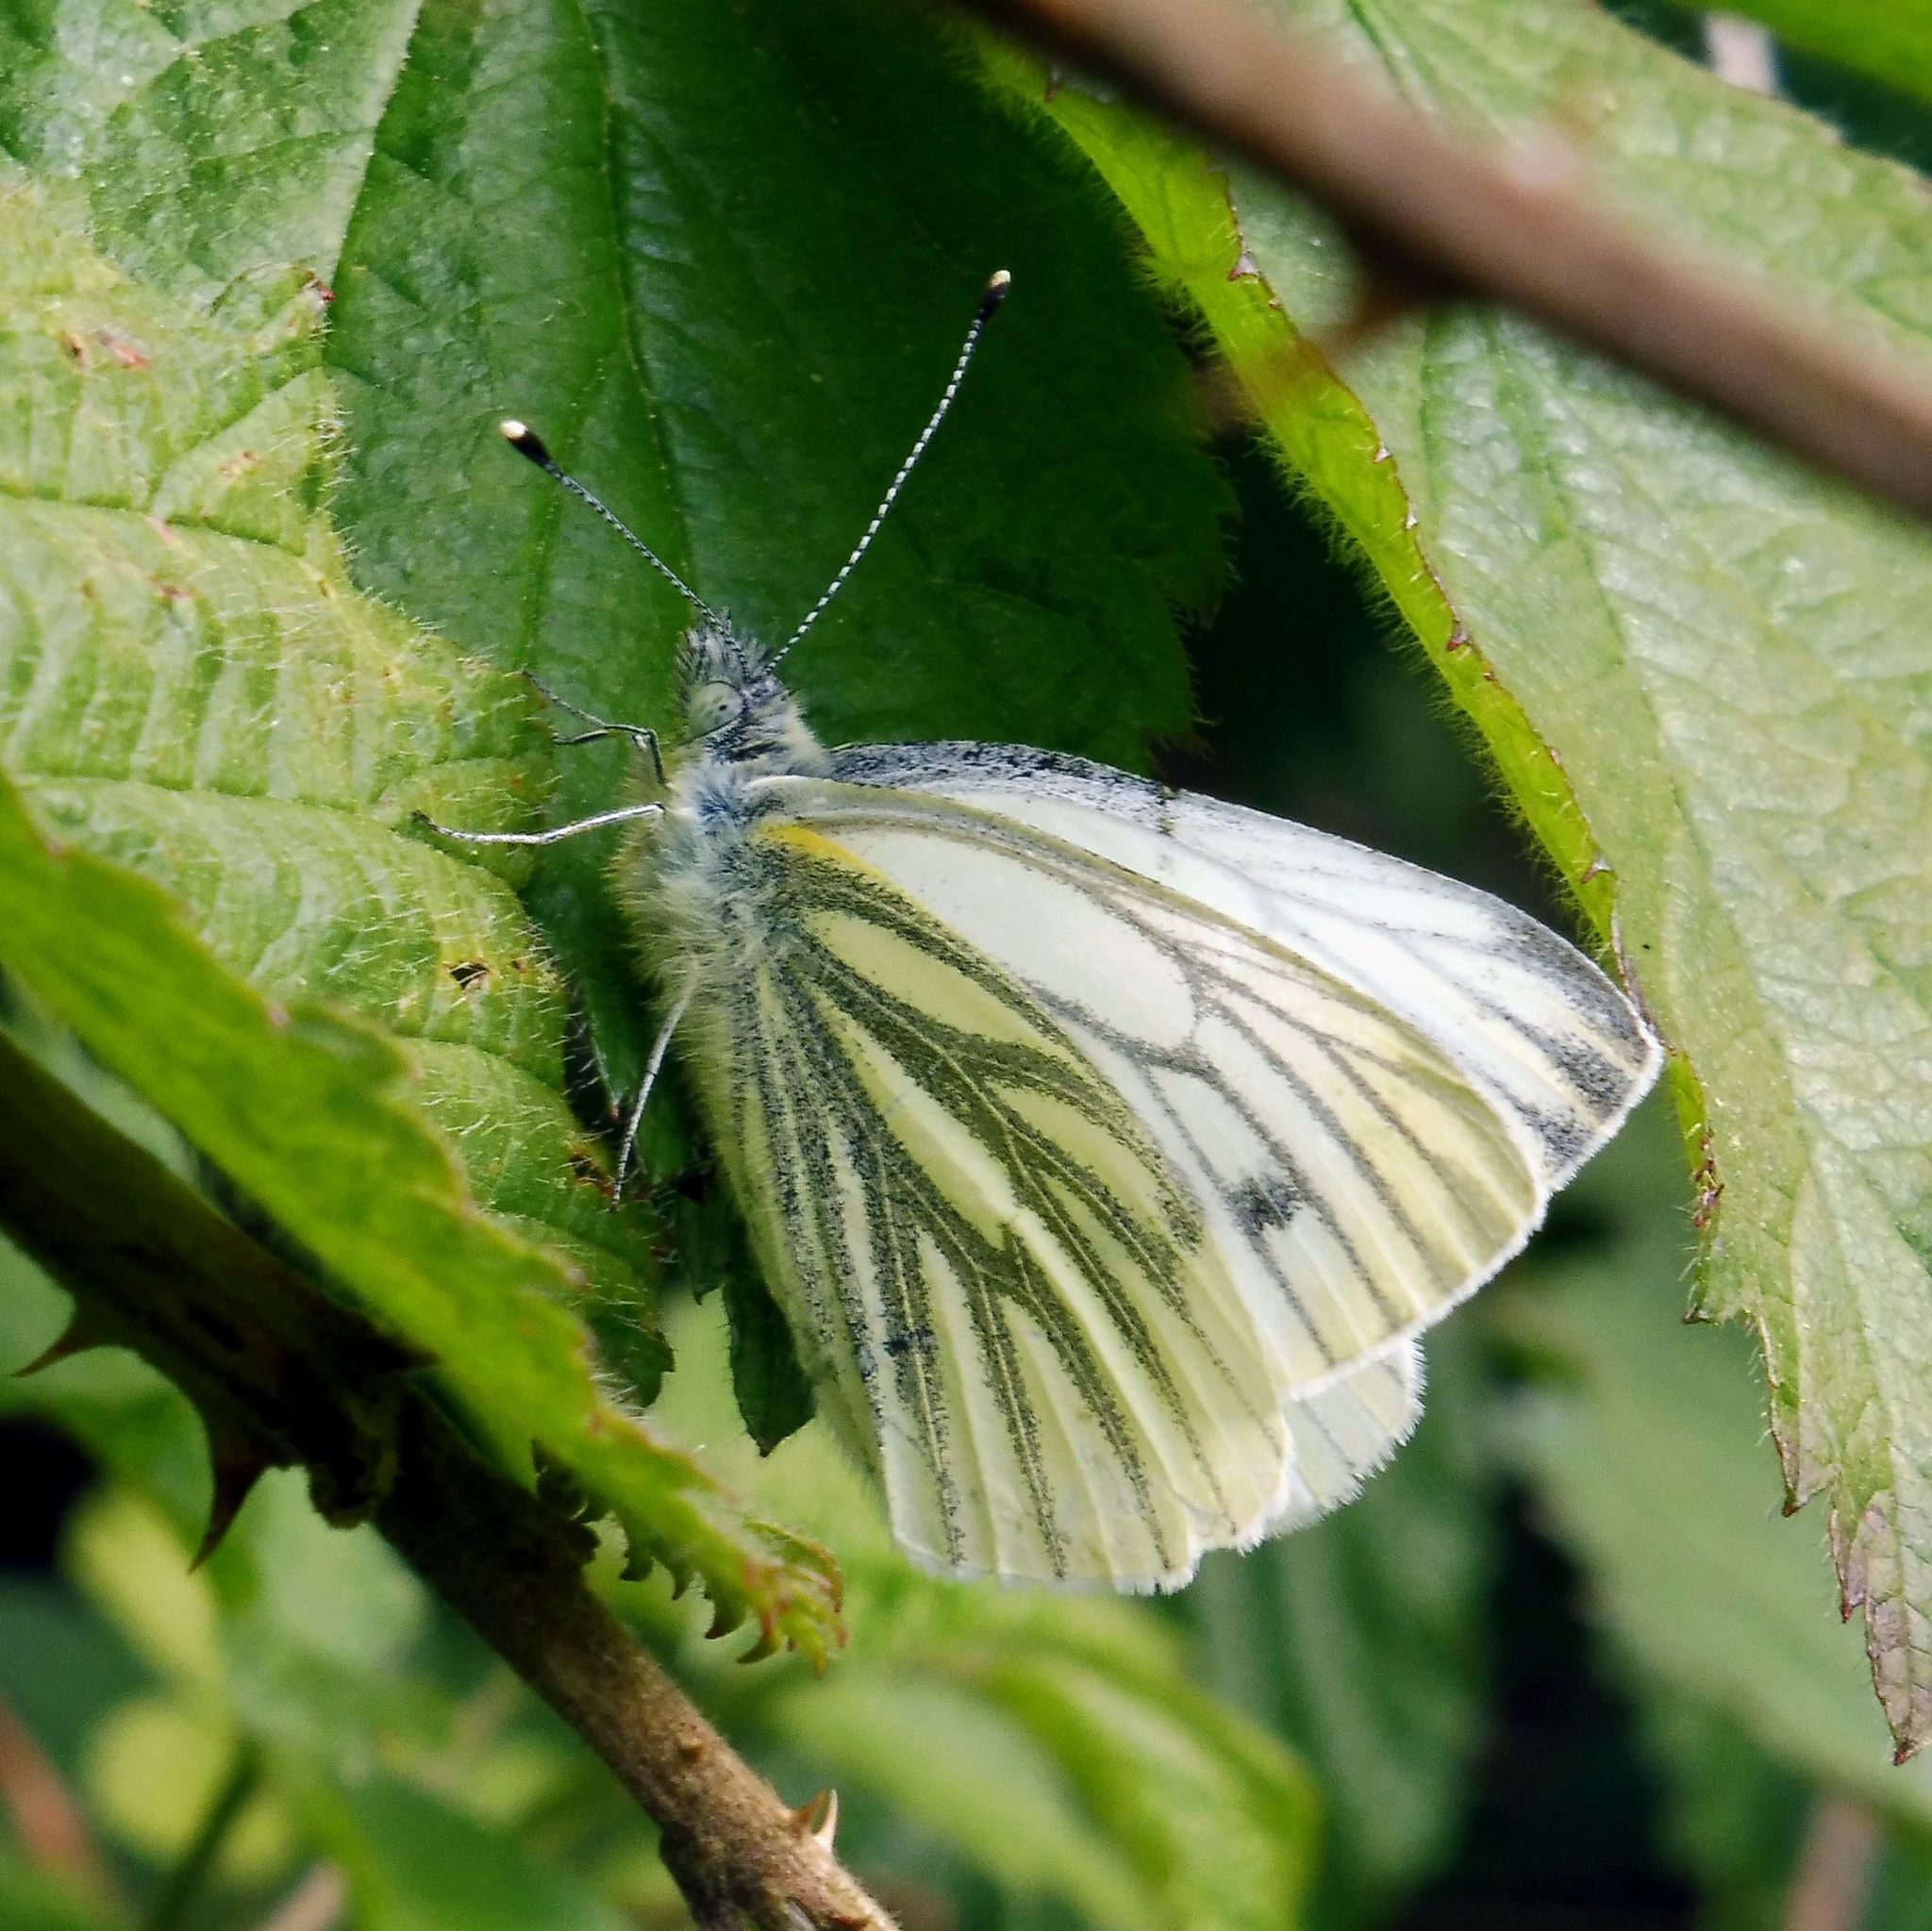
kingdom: Animalia
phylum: Arthropoda
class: Insecta
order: Lepidoptera
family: Pieridae
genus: Pieris
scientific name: Pieris napi
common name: Green-veined white
